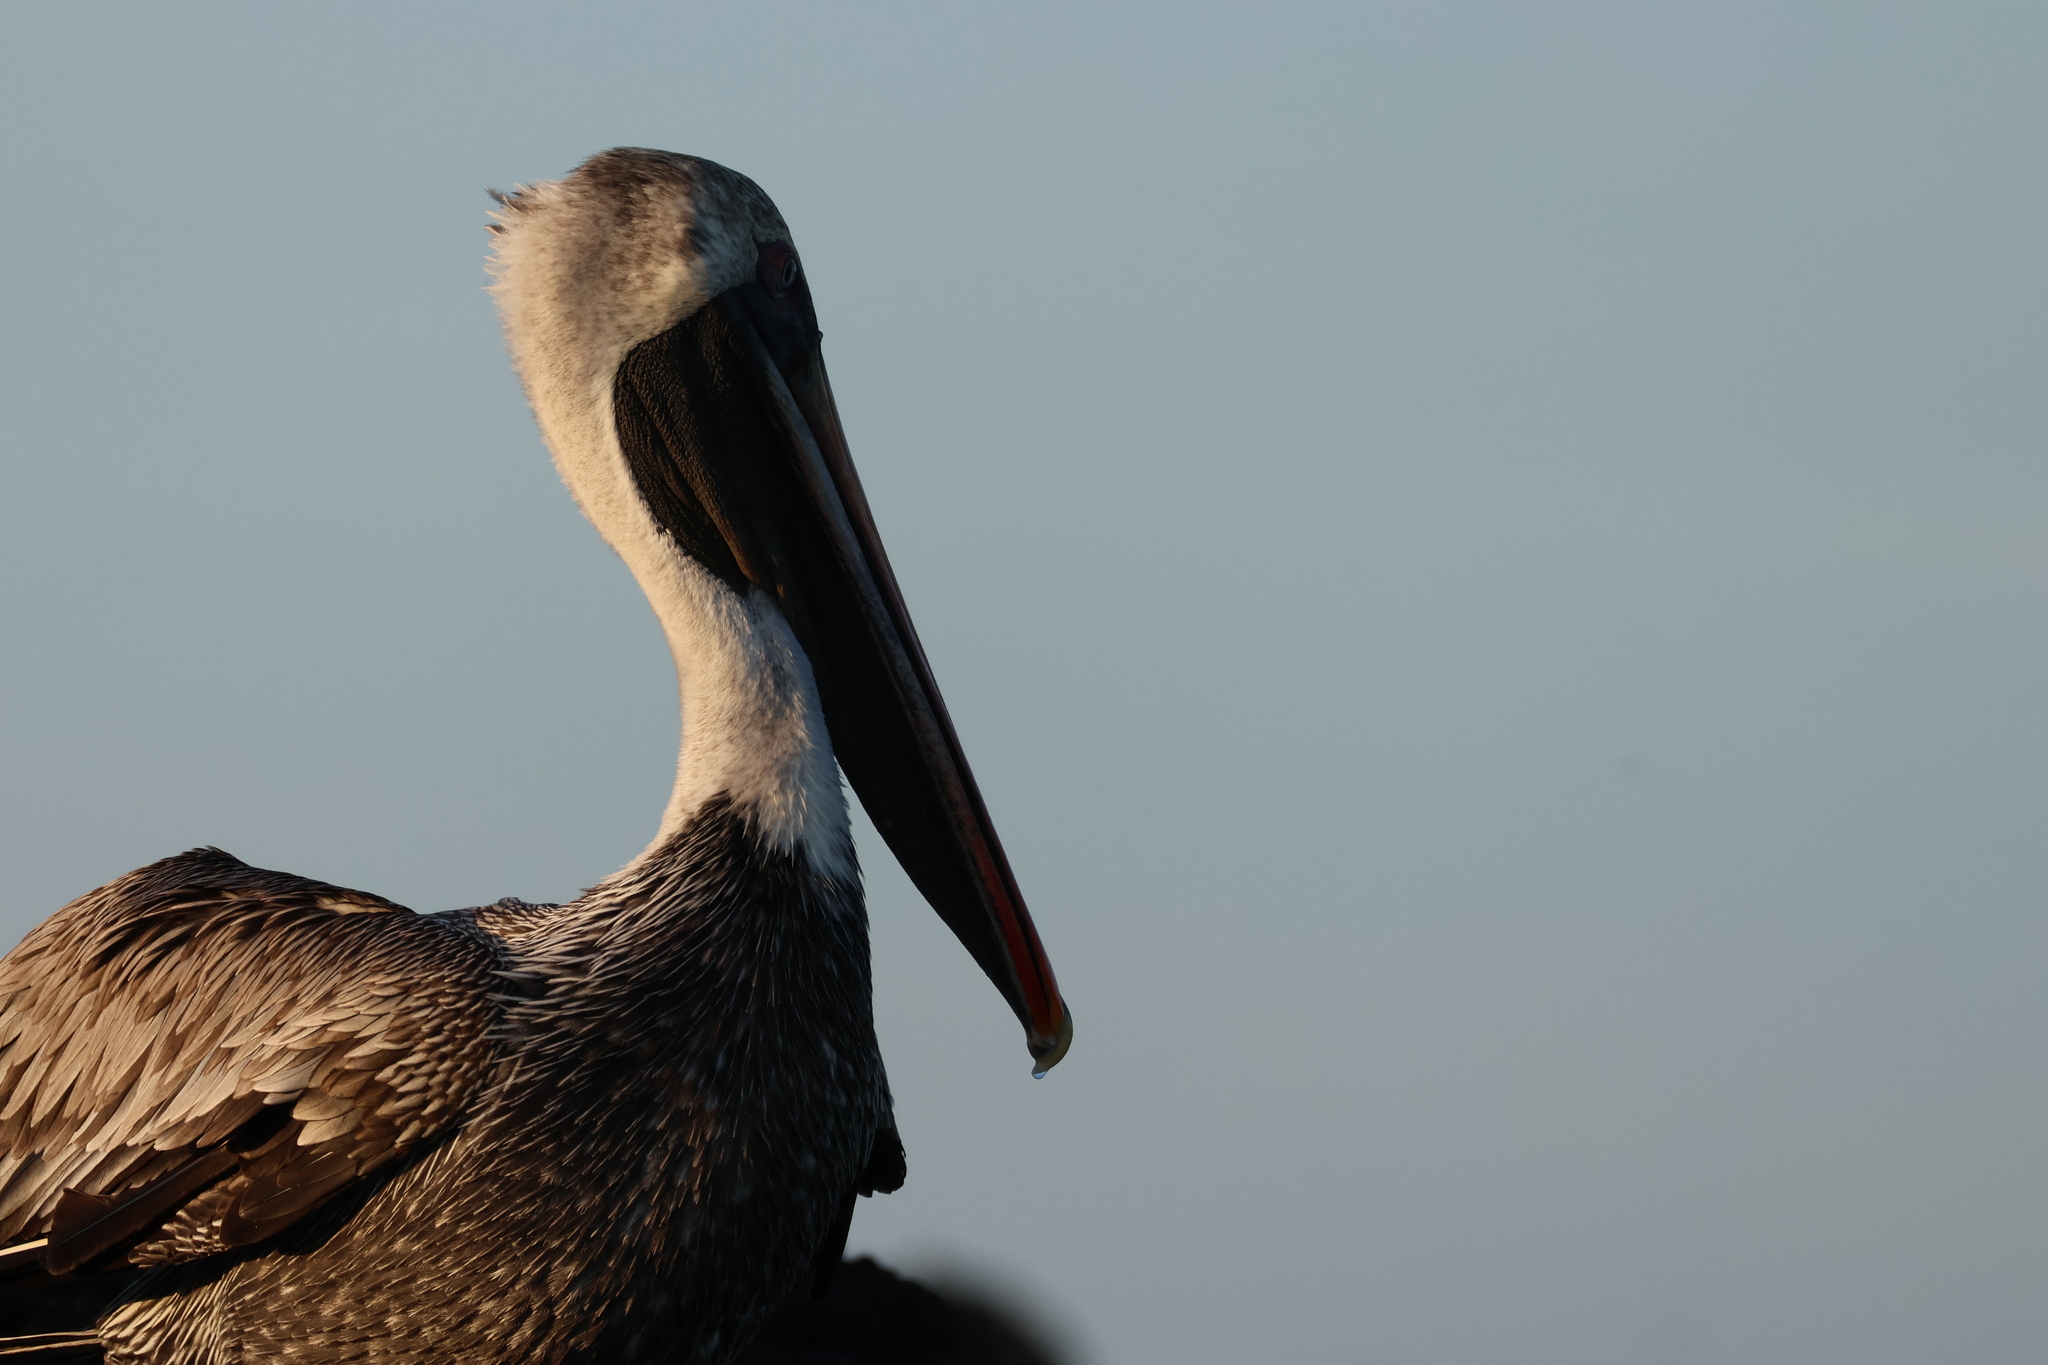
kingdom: Animalia
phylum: Chordata
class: Aves
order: Pelecaniformes
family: Pelecanidae
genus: Pelecanus
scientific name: Pelecanus occidentalis
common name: Brown pelican
